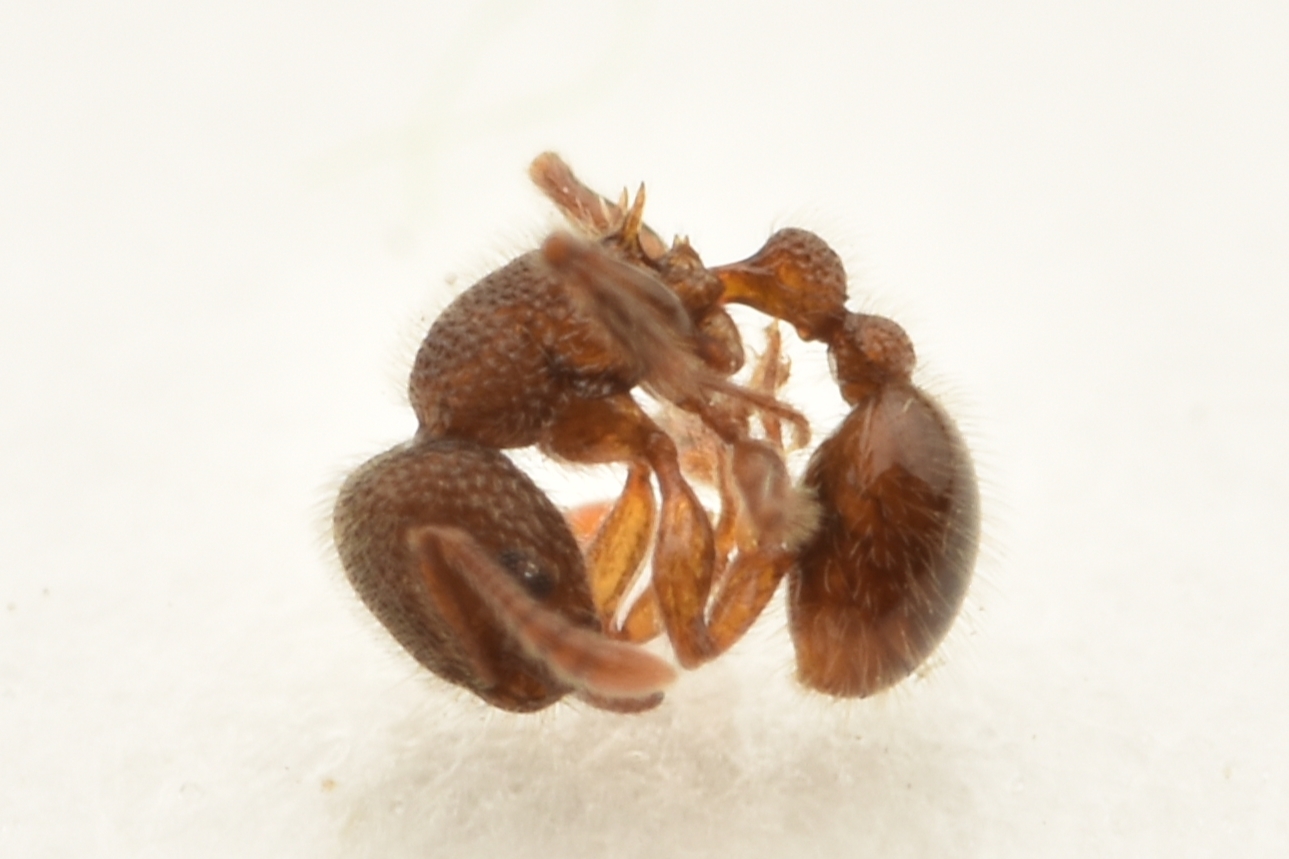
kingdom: Animalia
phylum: Arthropoda
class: Insecta
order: Hymenoptera
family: Formicidae
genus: Tetramorium
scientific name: Tetramorium lanuginosum
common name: Ant
